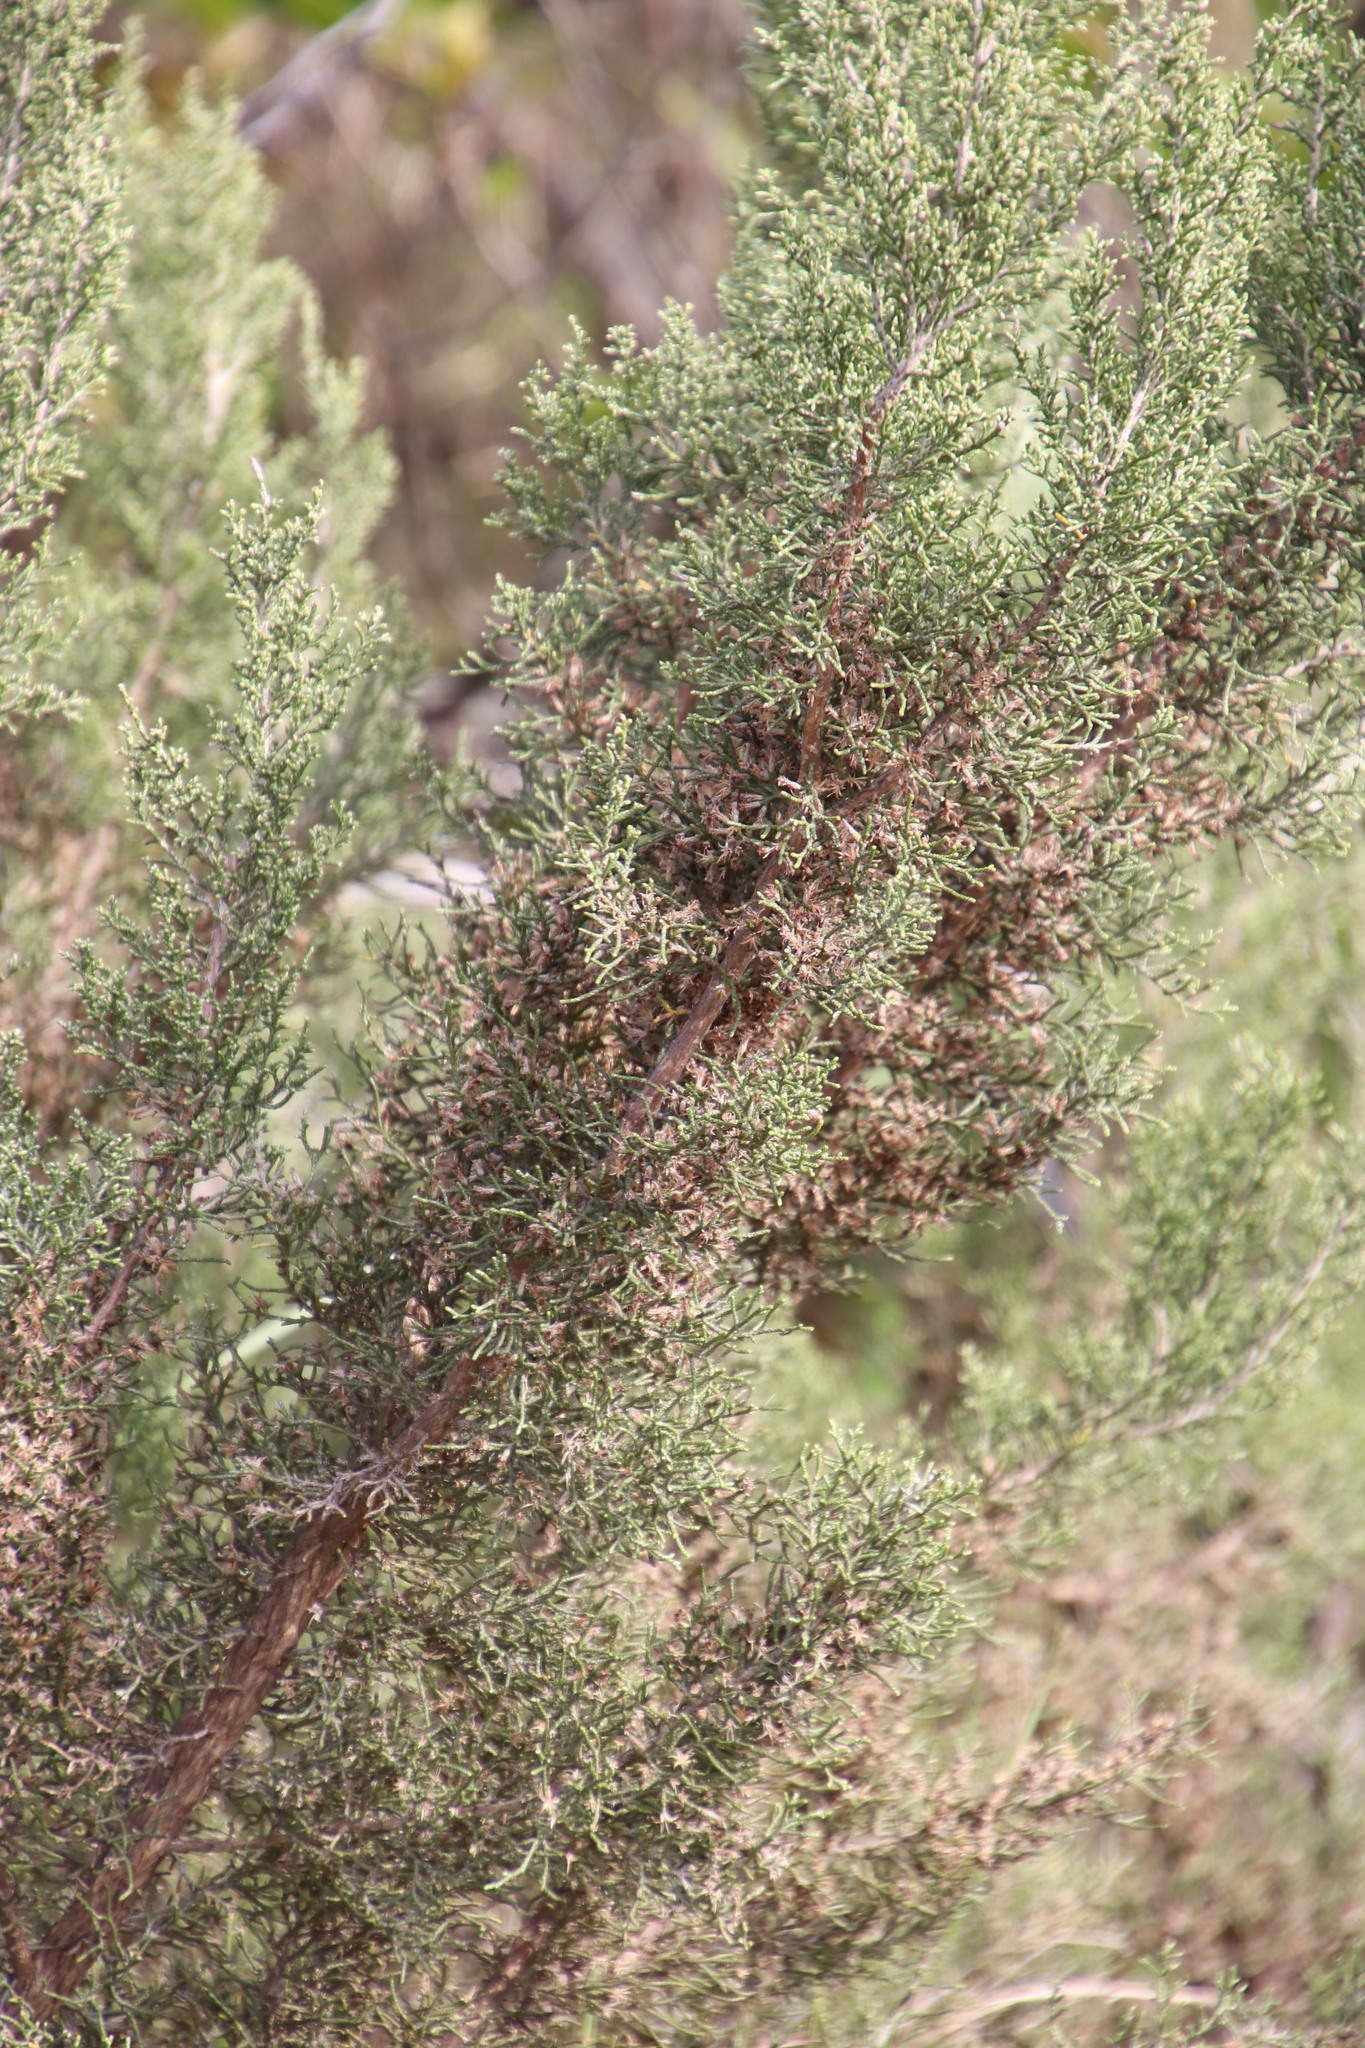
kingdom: Plantae
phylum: Tracheophyta
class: Magnoliopsida
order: Asterales
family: Asteraceae
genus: Dicerothamnus
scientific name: Dicerothamnus rhinocerotis
